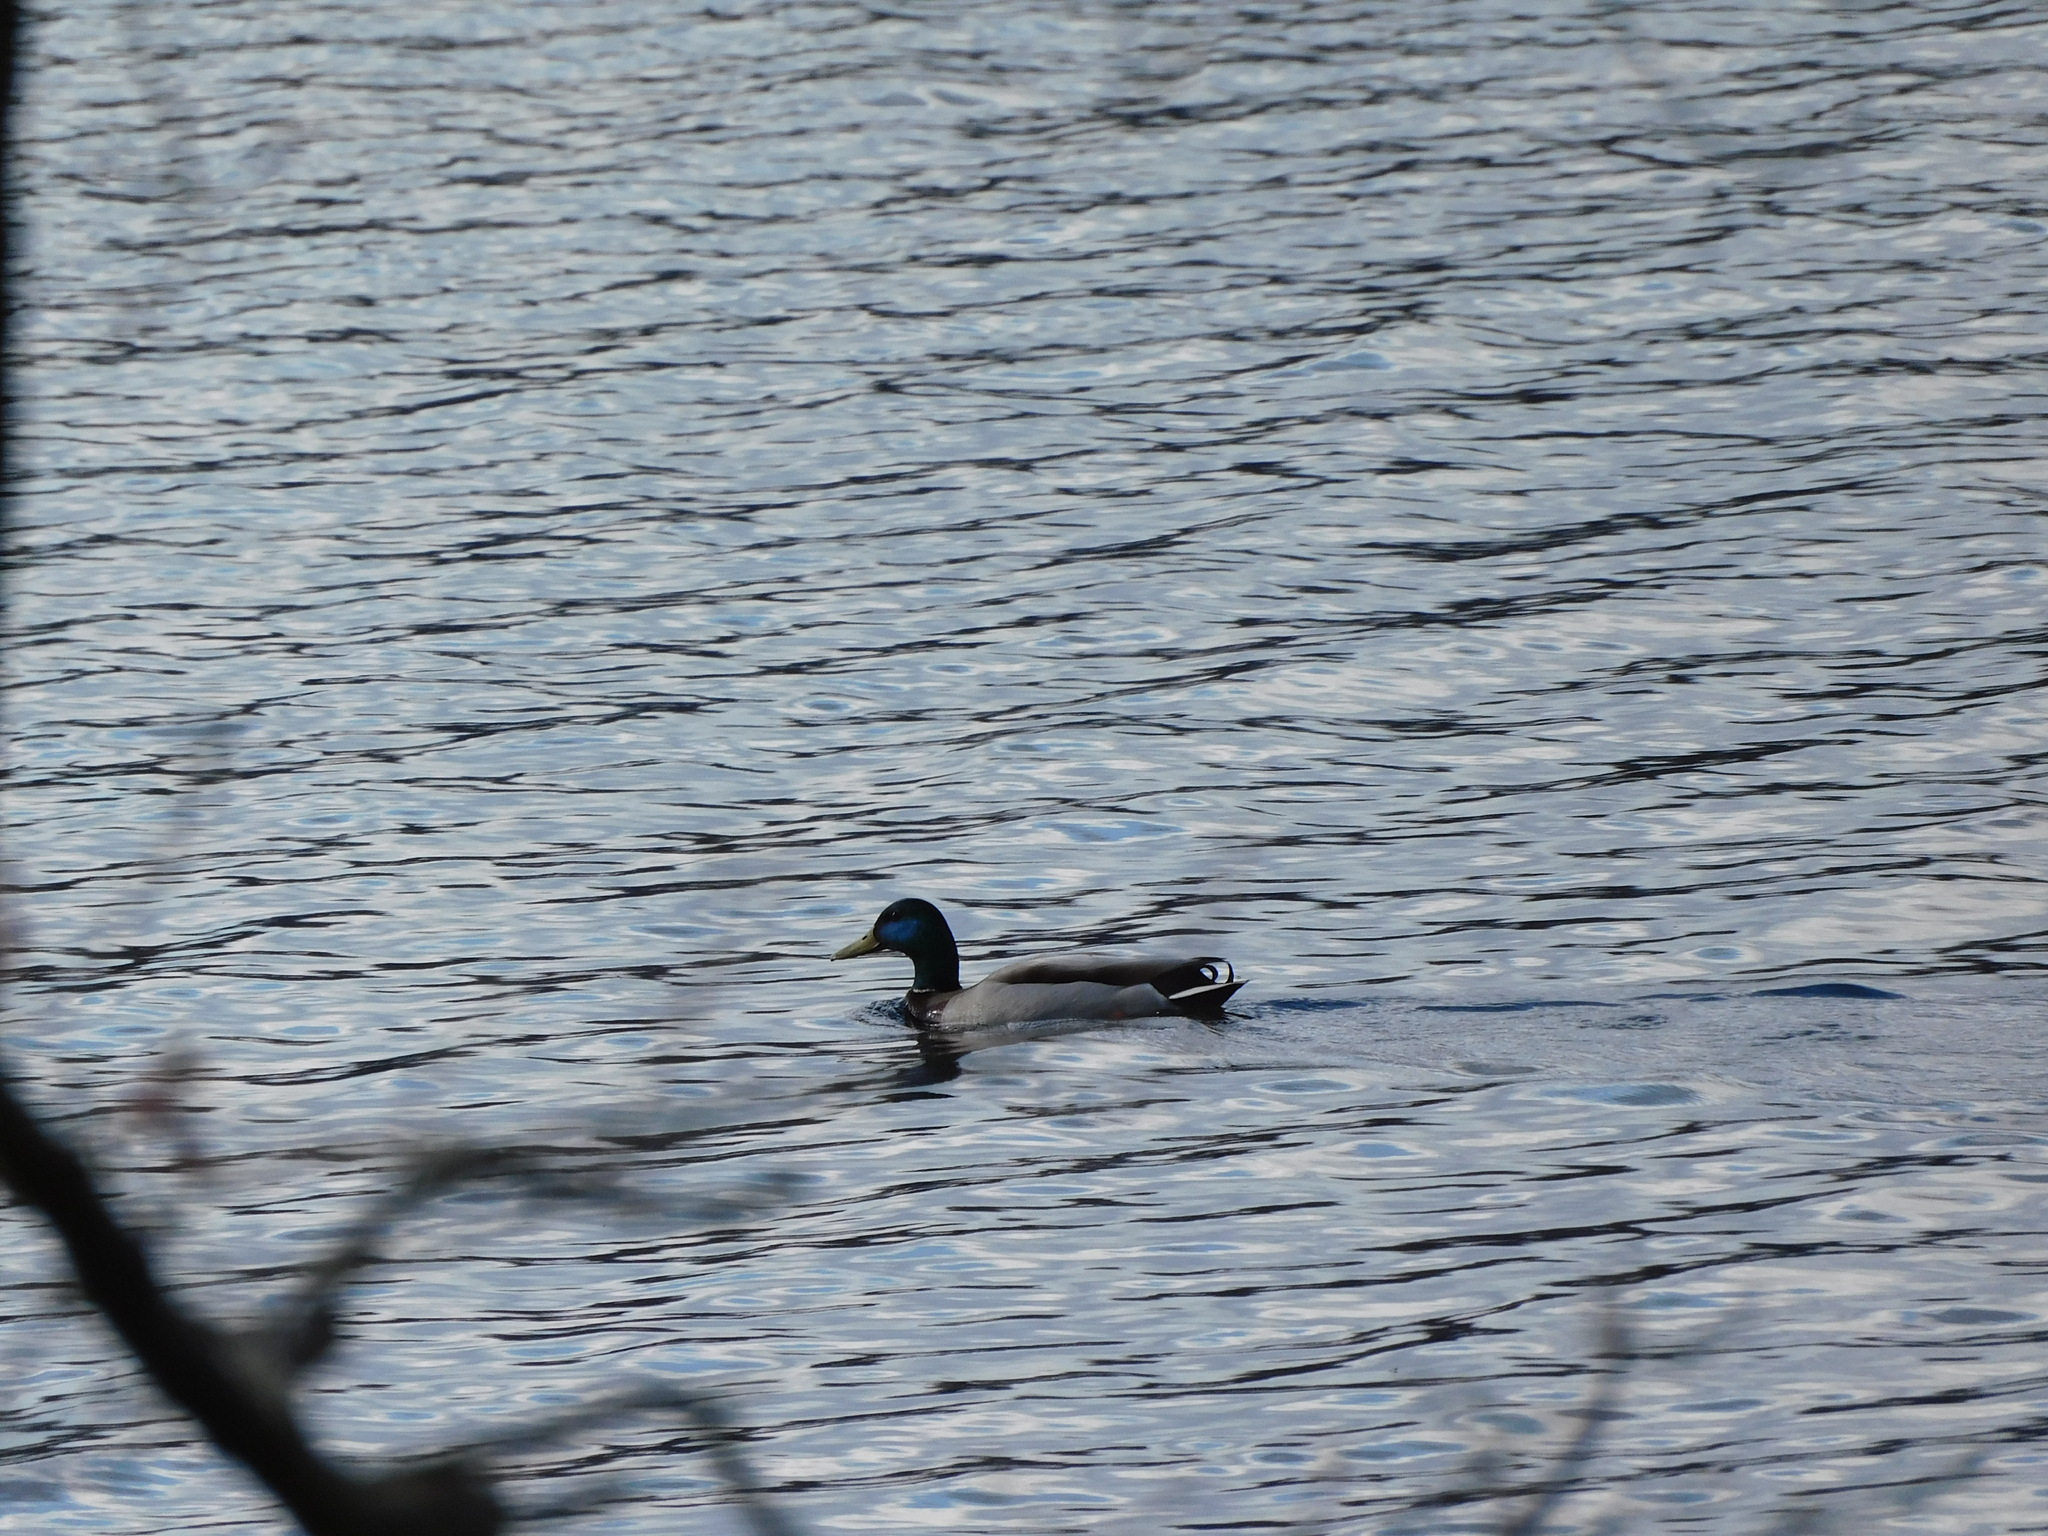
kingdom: Animalia
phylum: Chordata
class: Aves
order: Anseriformes
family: Anatidae
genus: Anas
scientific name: Anas platyrhynchos
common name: Mallard
